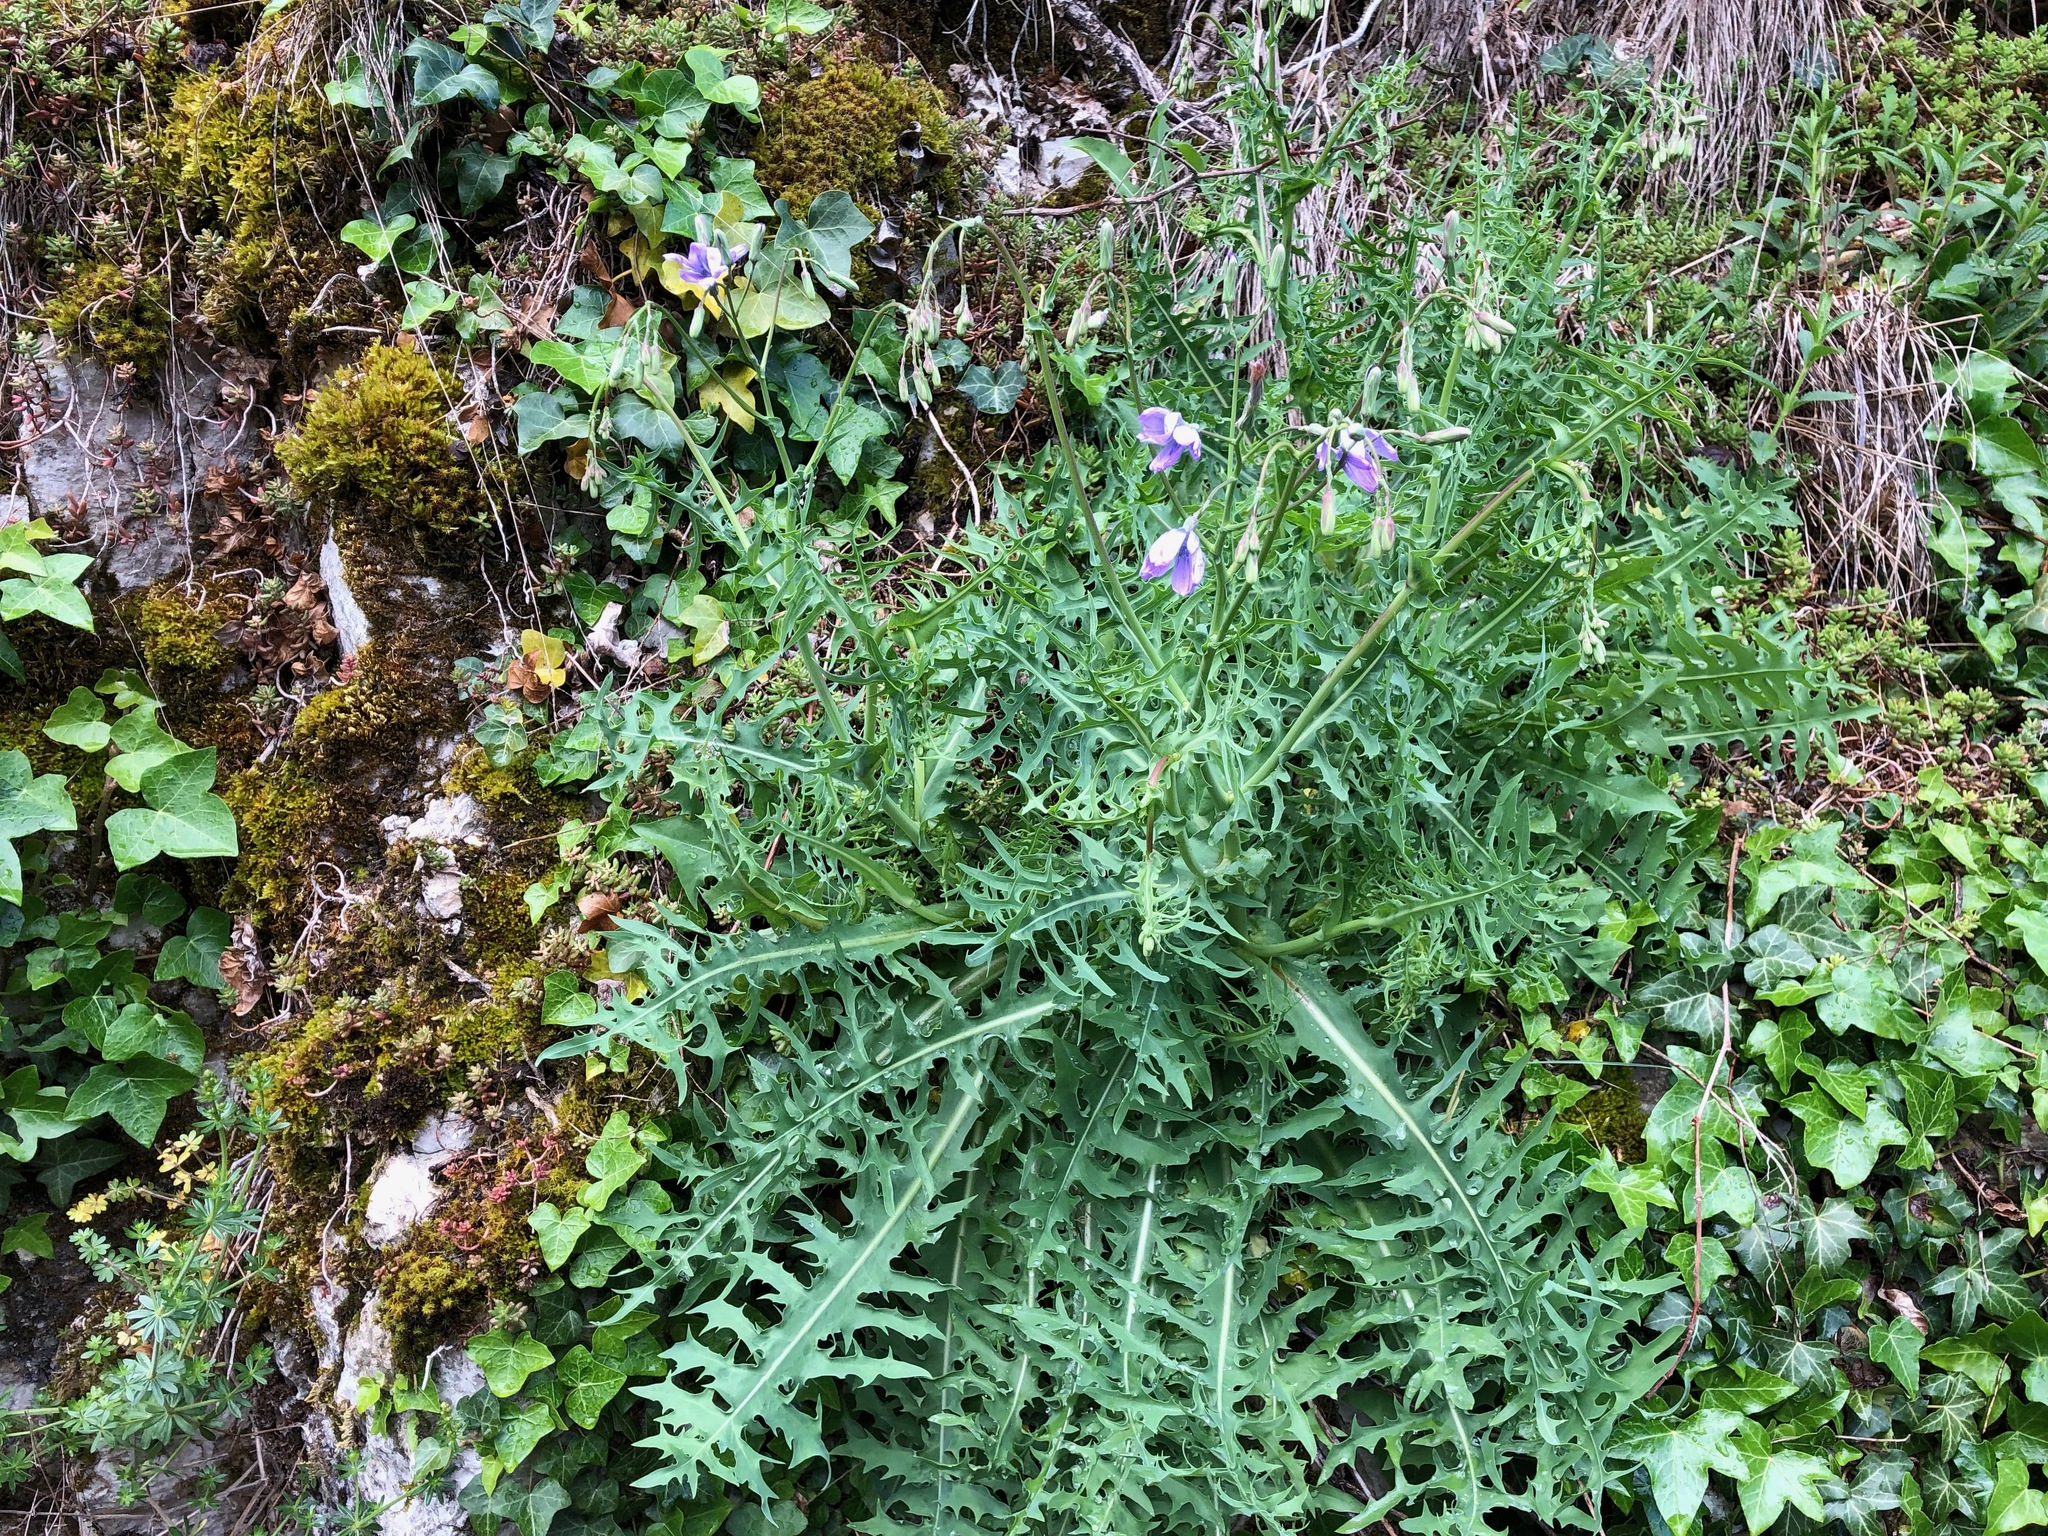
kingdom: Plantae
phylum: Tracheophyta
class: Magnoliopsida
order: Asterales
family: Asteraceae
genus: Lactuca
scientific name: Lactuca perennis
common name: Mountain lettuce
